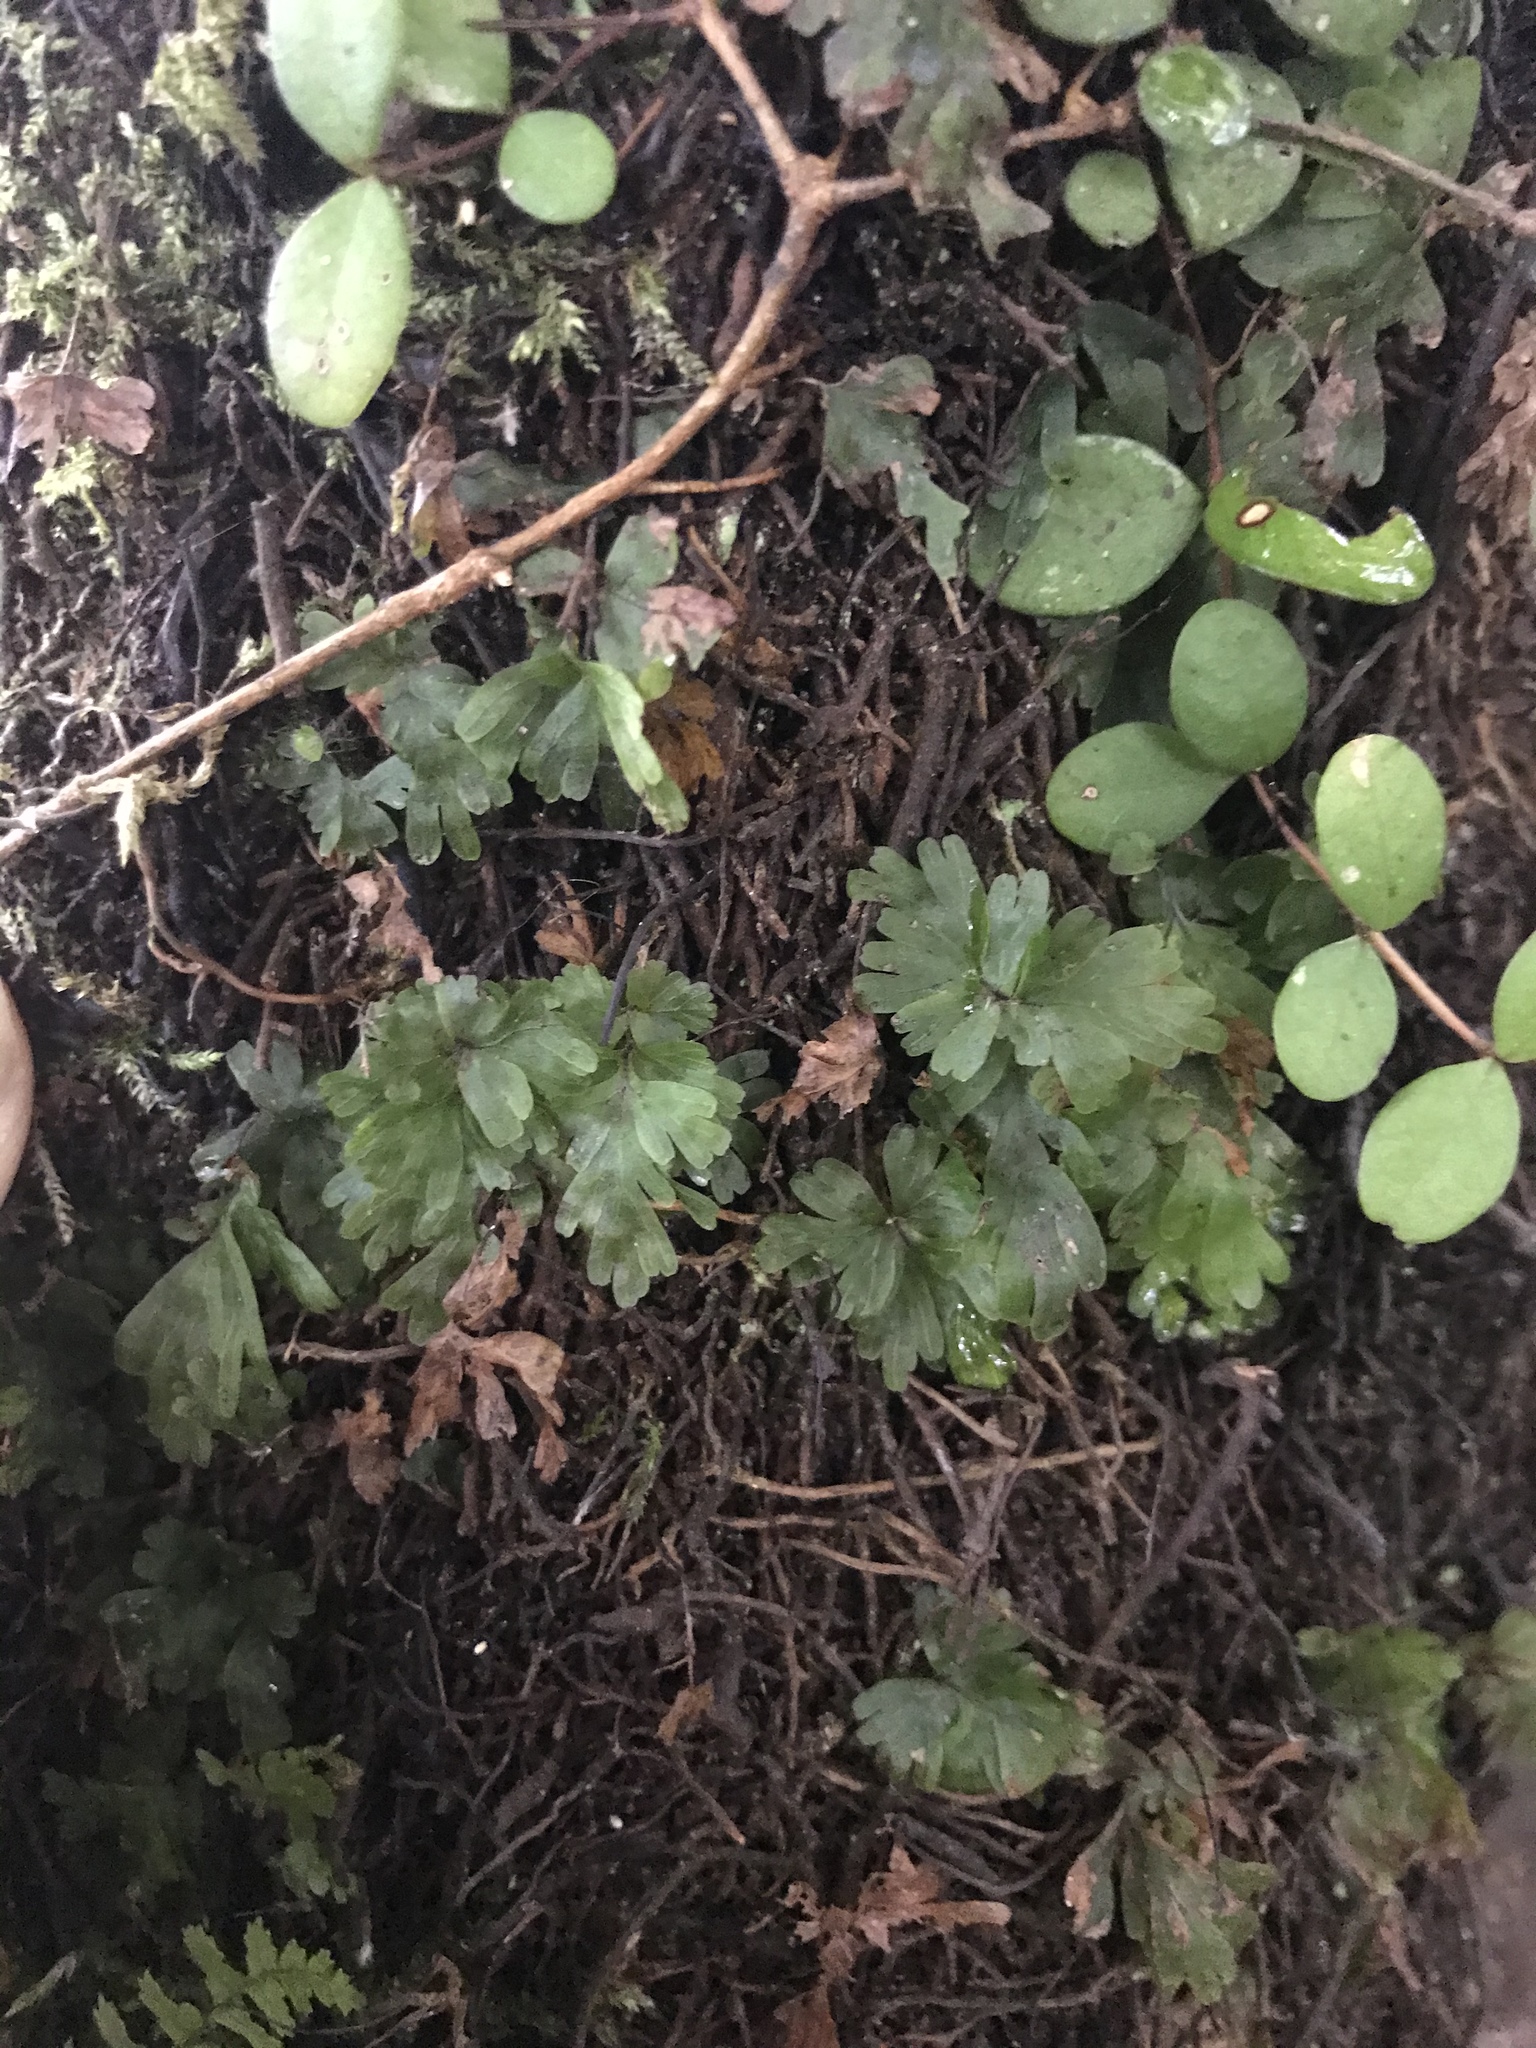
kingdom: Plantae
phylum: Tracheophyta
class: Polypodiopsida
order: Hymenophyllales
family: Hymenophyllaceae
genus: Hymenophyllum
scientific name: Hymenophyllum flabellatum
